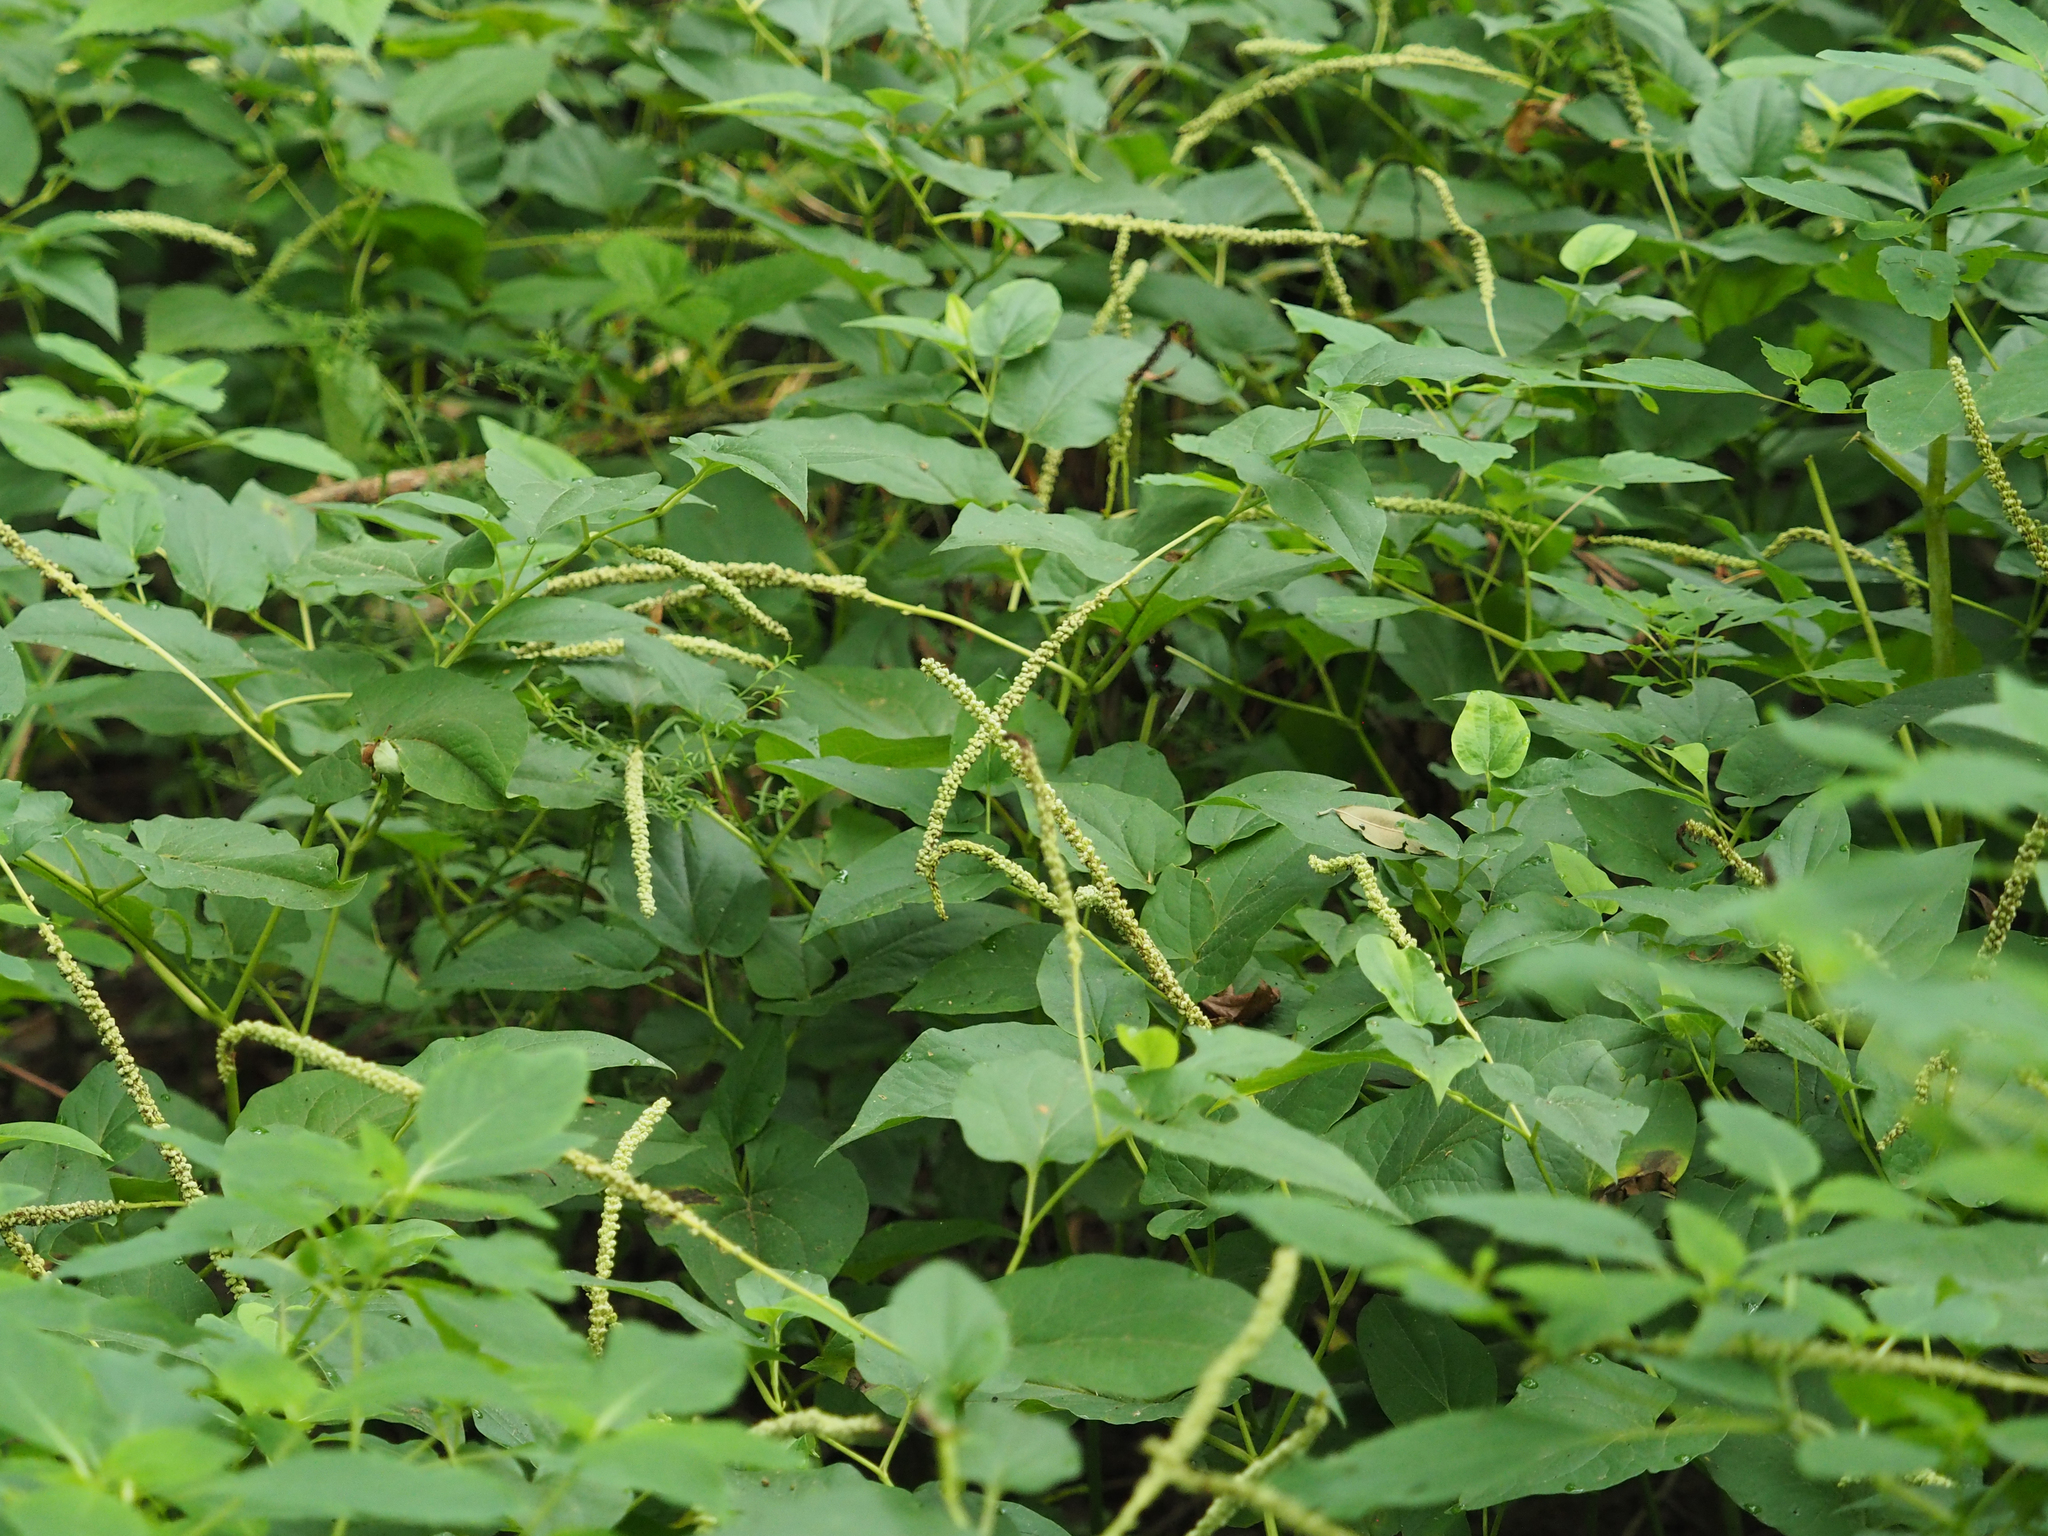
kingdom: Plantae
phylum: Tracheophyta
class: Magnoliopsida
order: Piperales
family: Saururaceae
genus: Saururus
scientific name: Saururus cernuus
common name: Lizard's-tail
